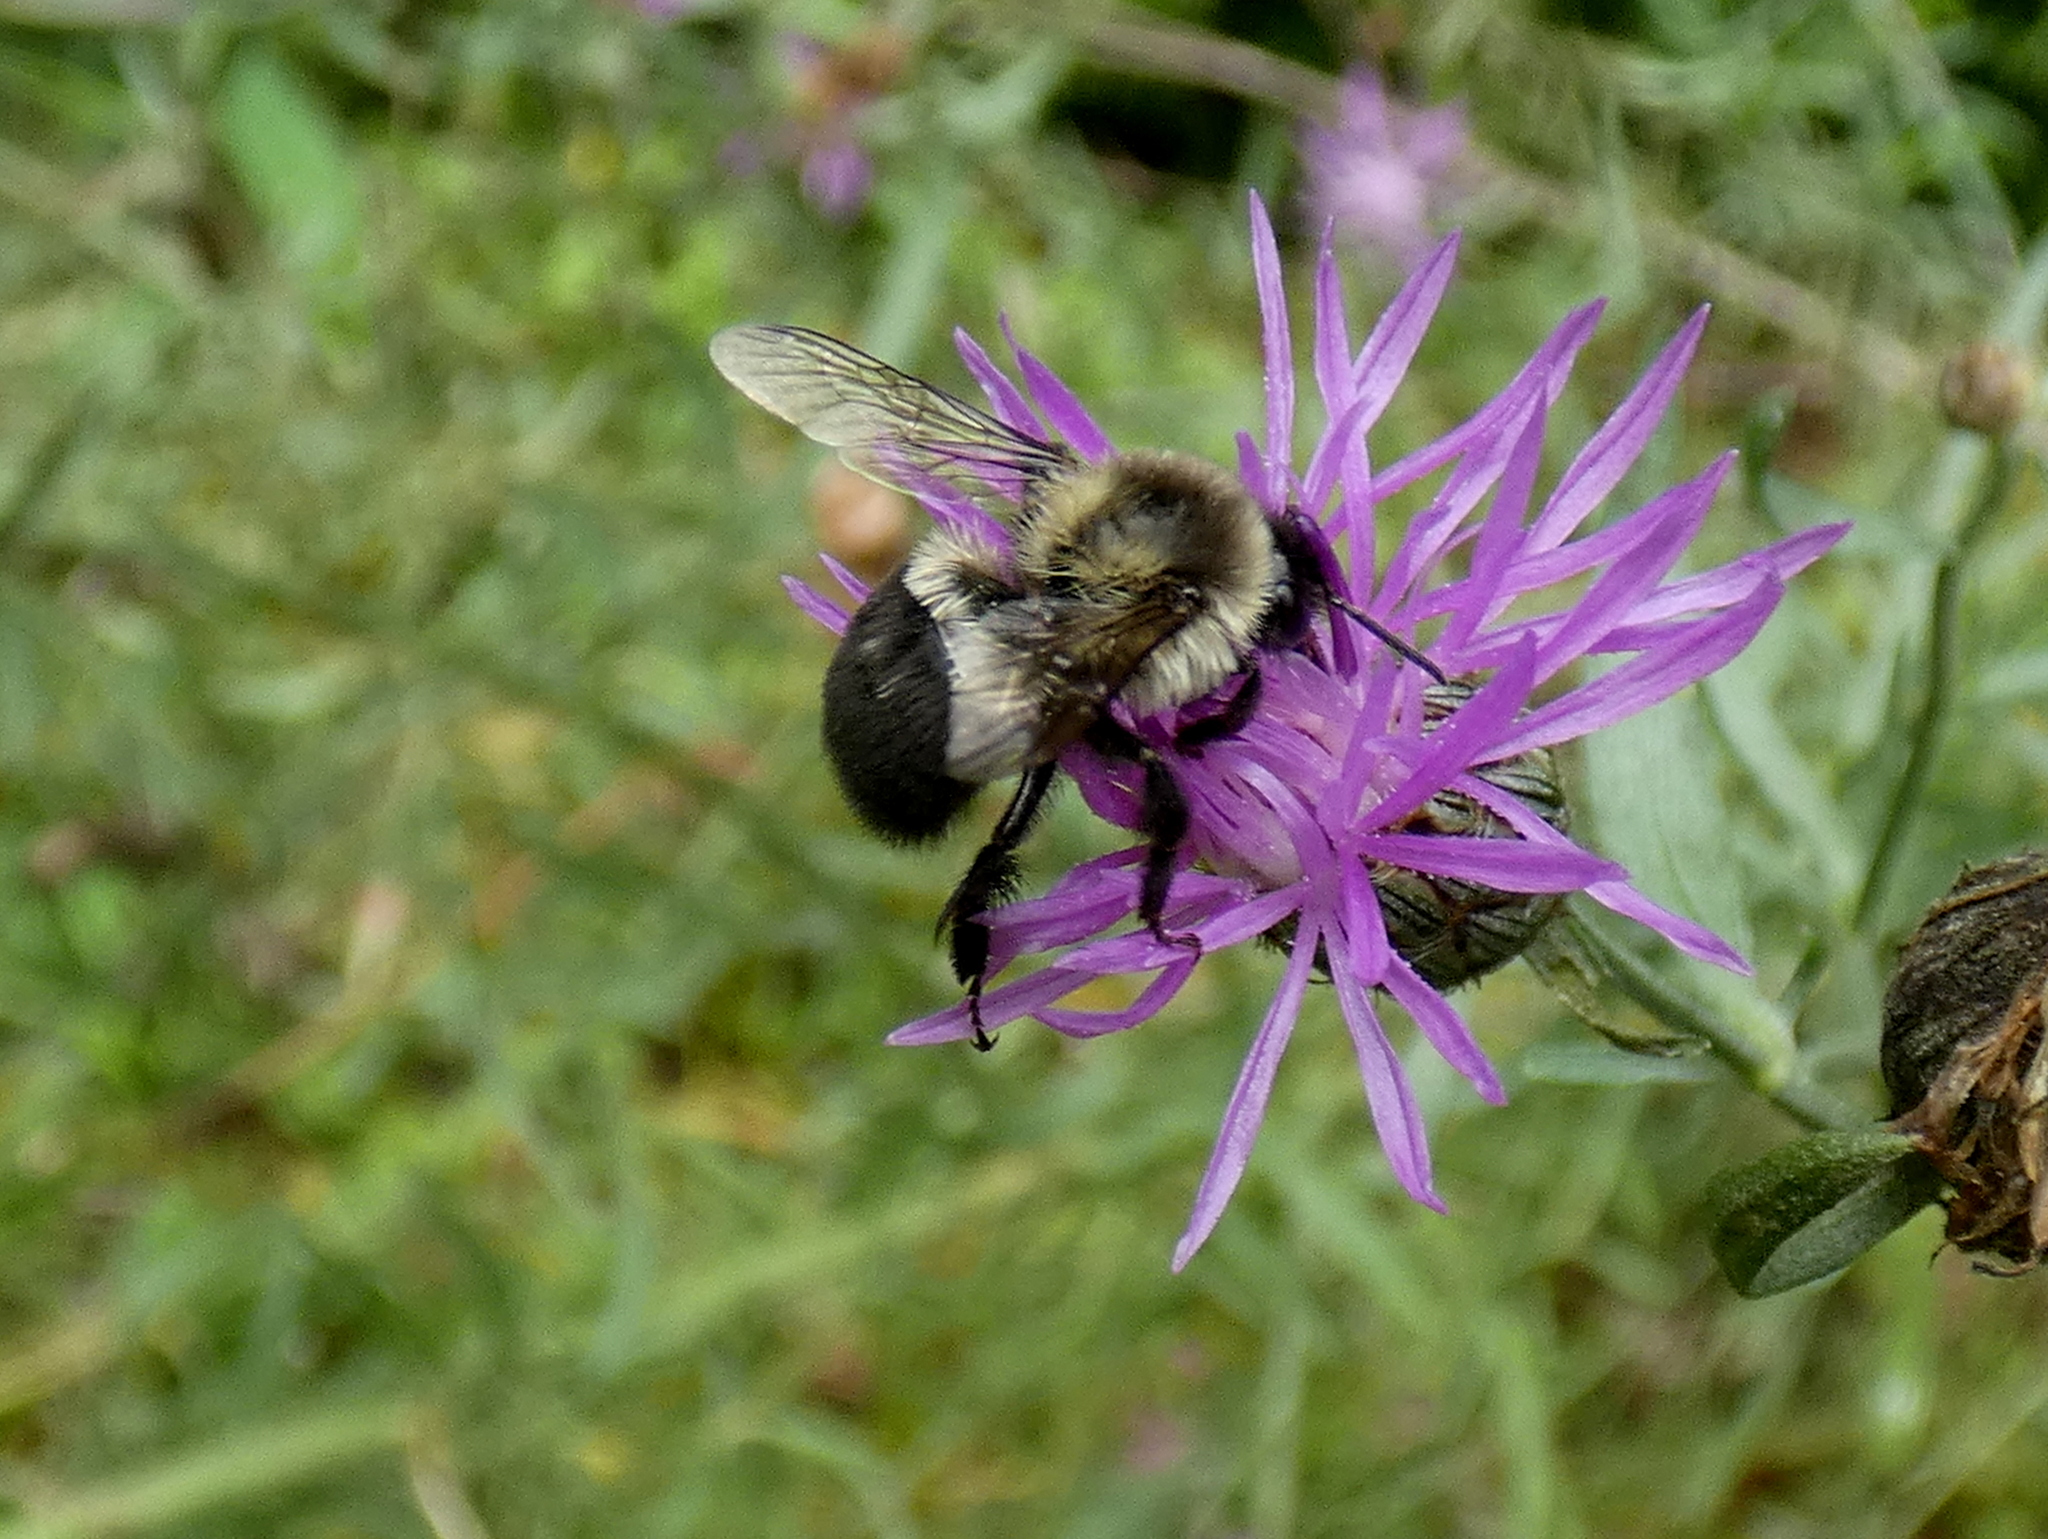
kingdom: Animalia
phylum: Arthropoda
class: Insecta
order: Hymenoptera
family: Apidae
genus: Bombus
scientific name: Bombus impatiens
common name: Common eastern bumble bee
